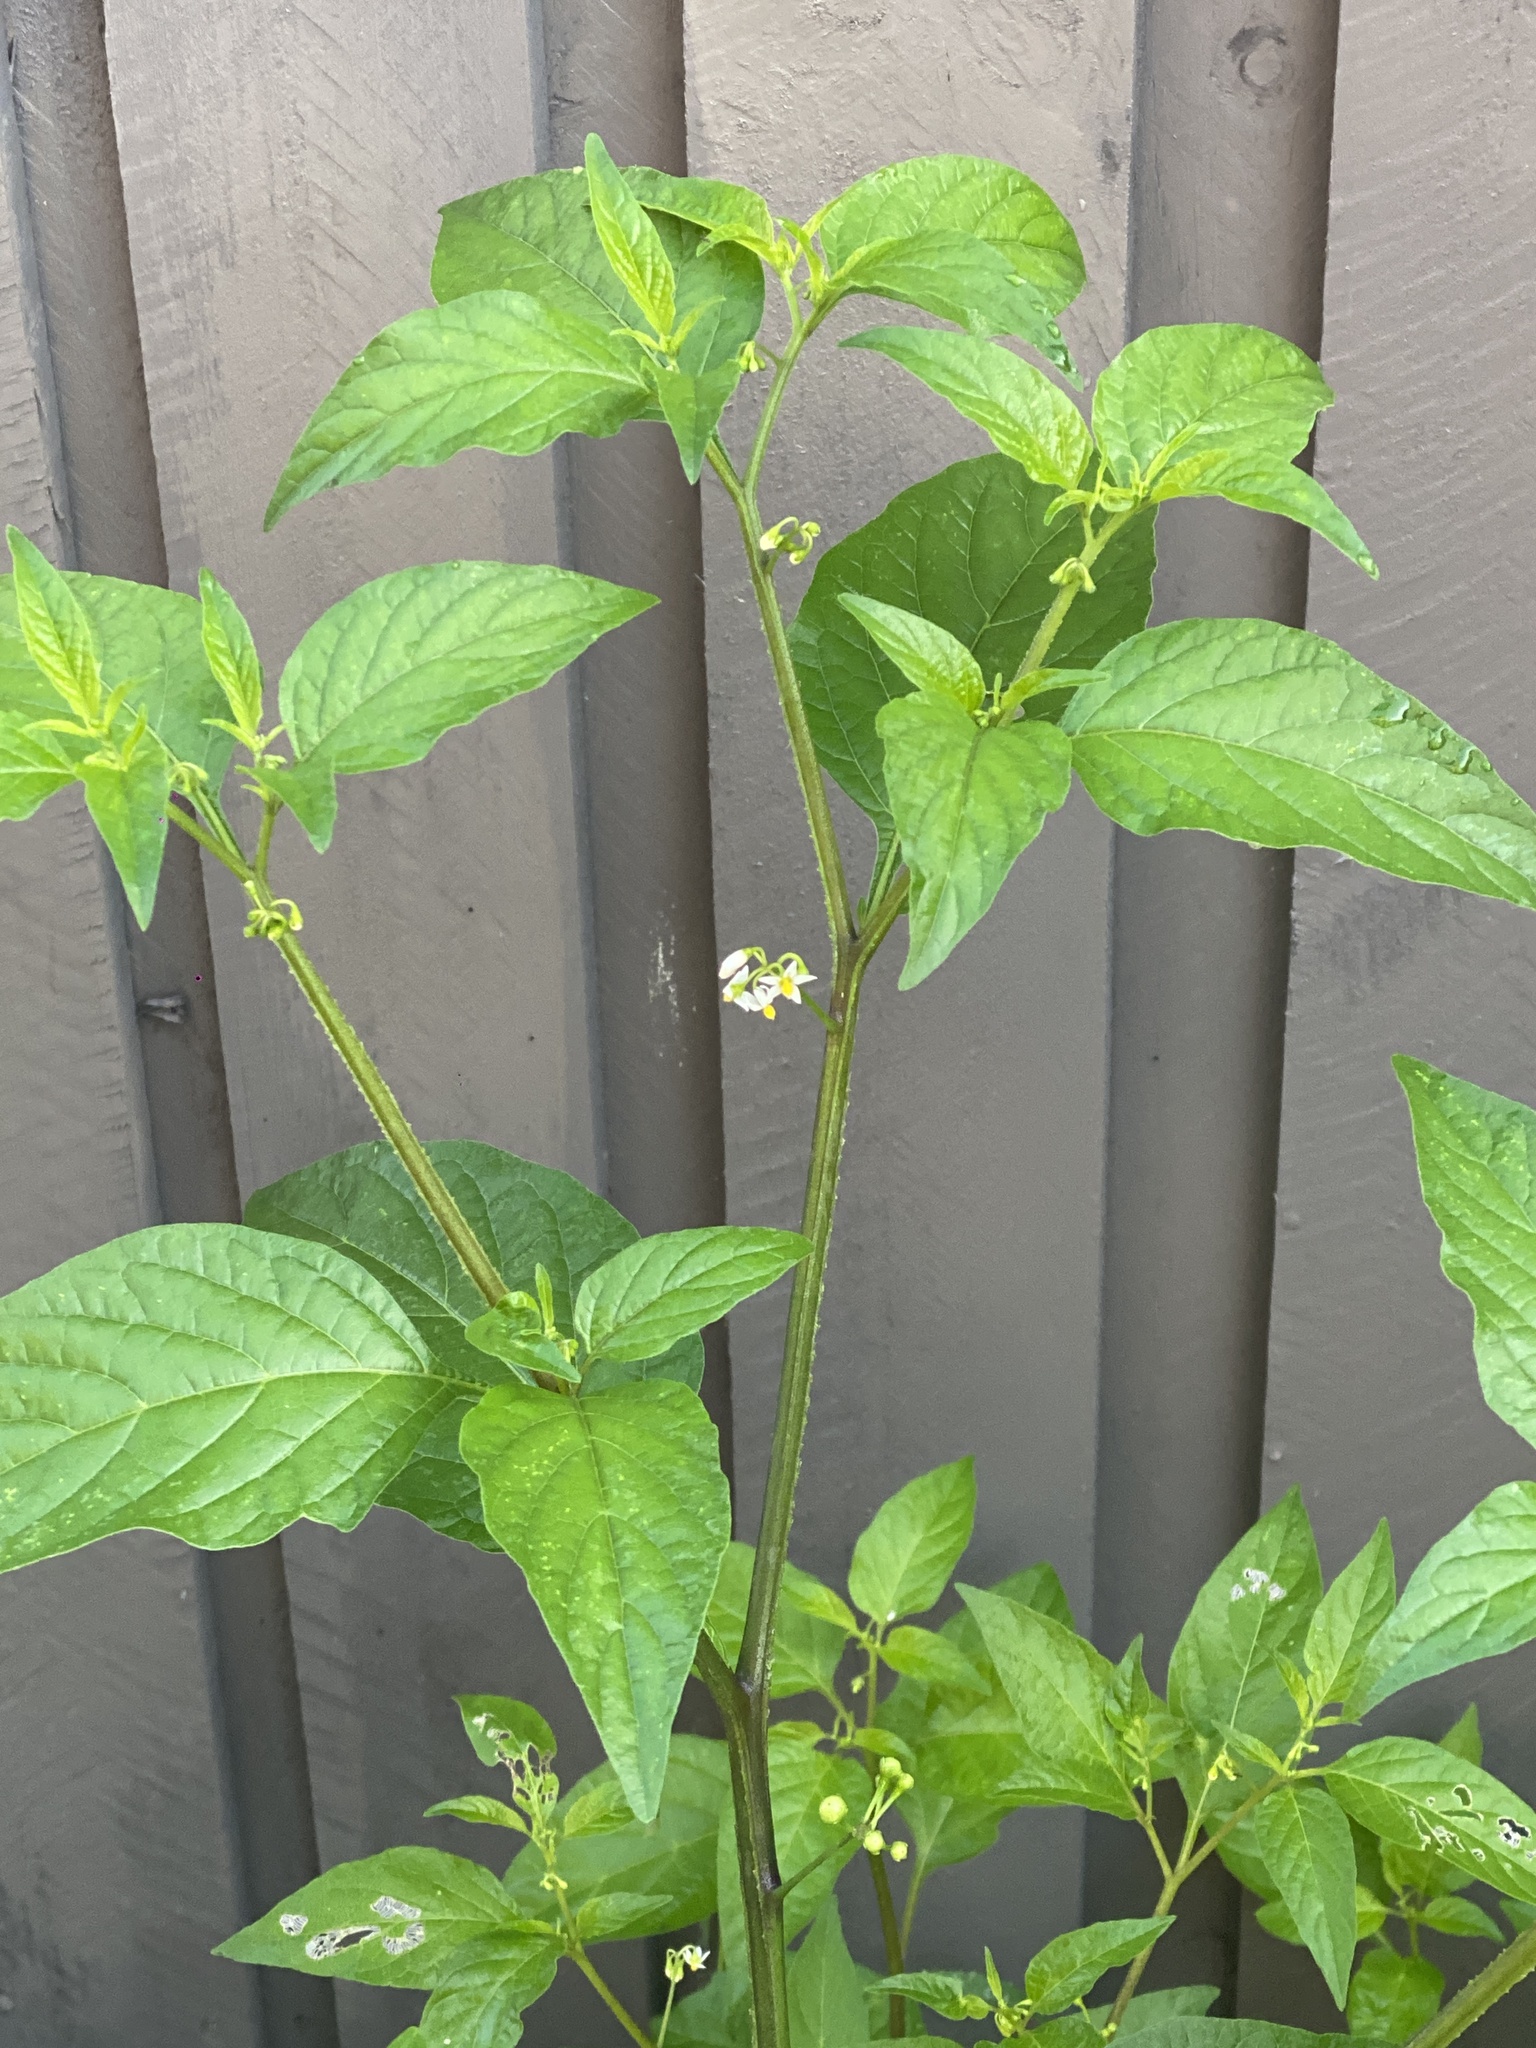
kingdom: Plantae
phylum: Tracheophyta
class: Magnoliopsida
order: Solanales
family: Solanaceae
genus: Solanum
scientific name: Solanum americanum
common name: American black nightshade
